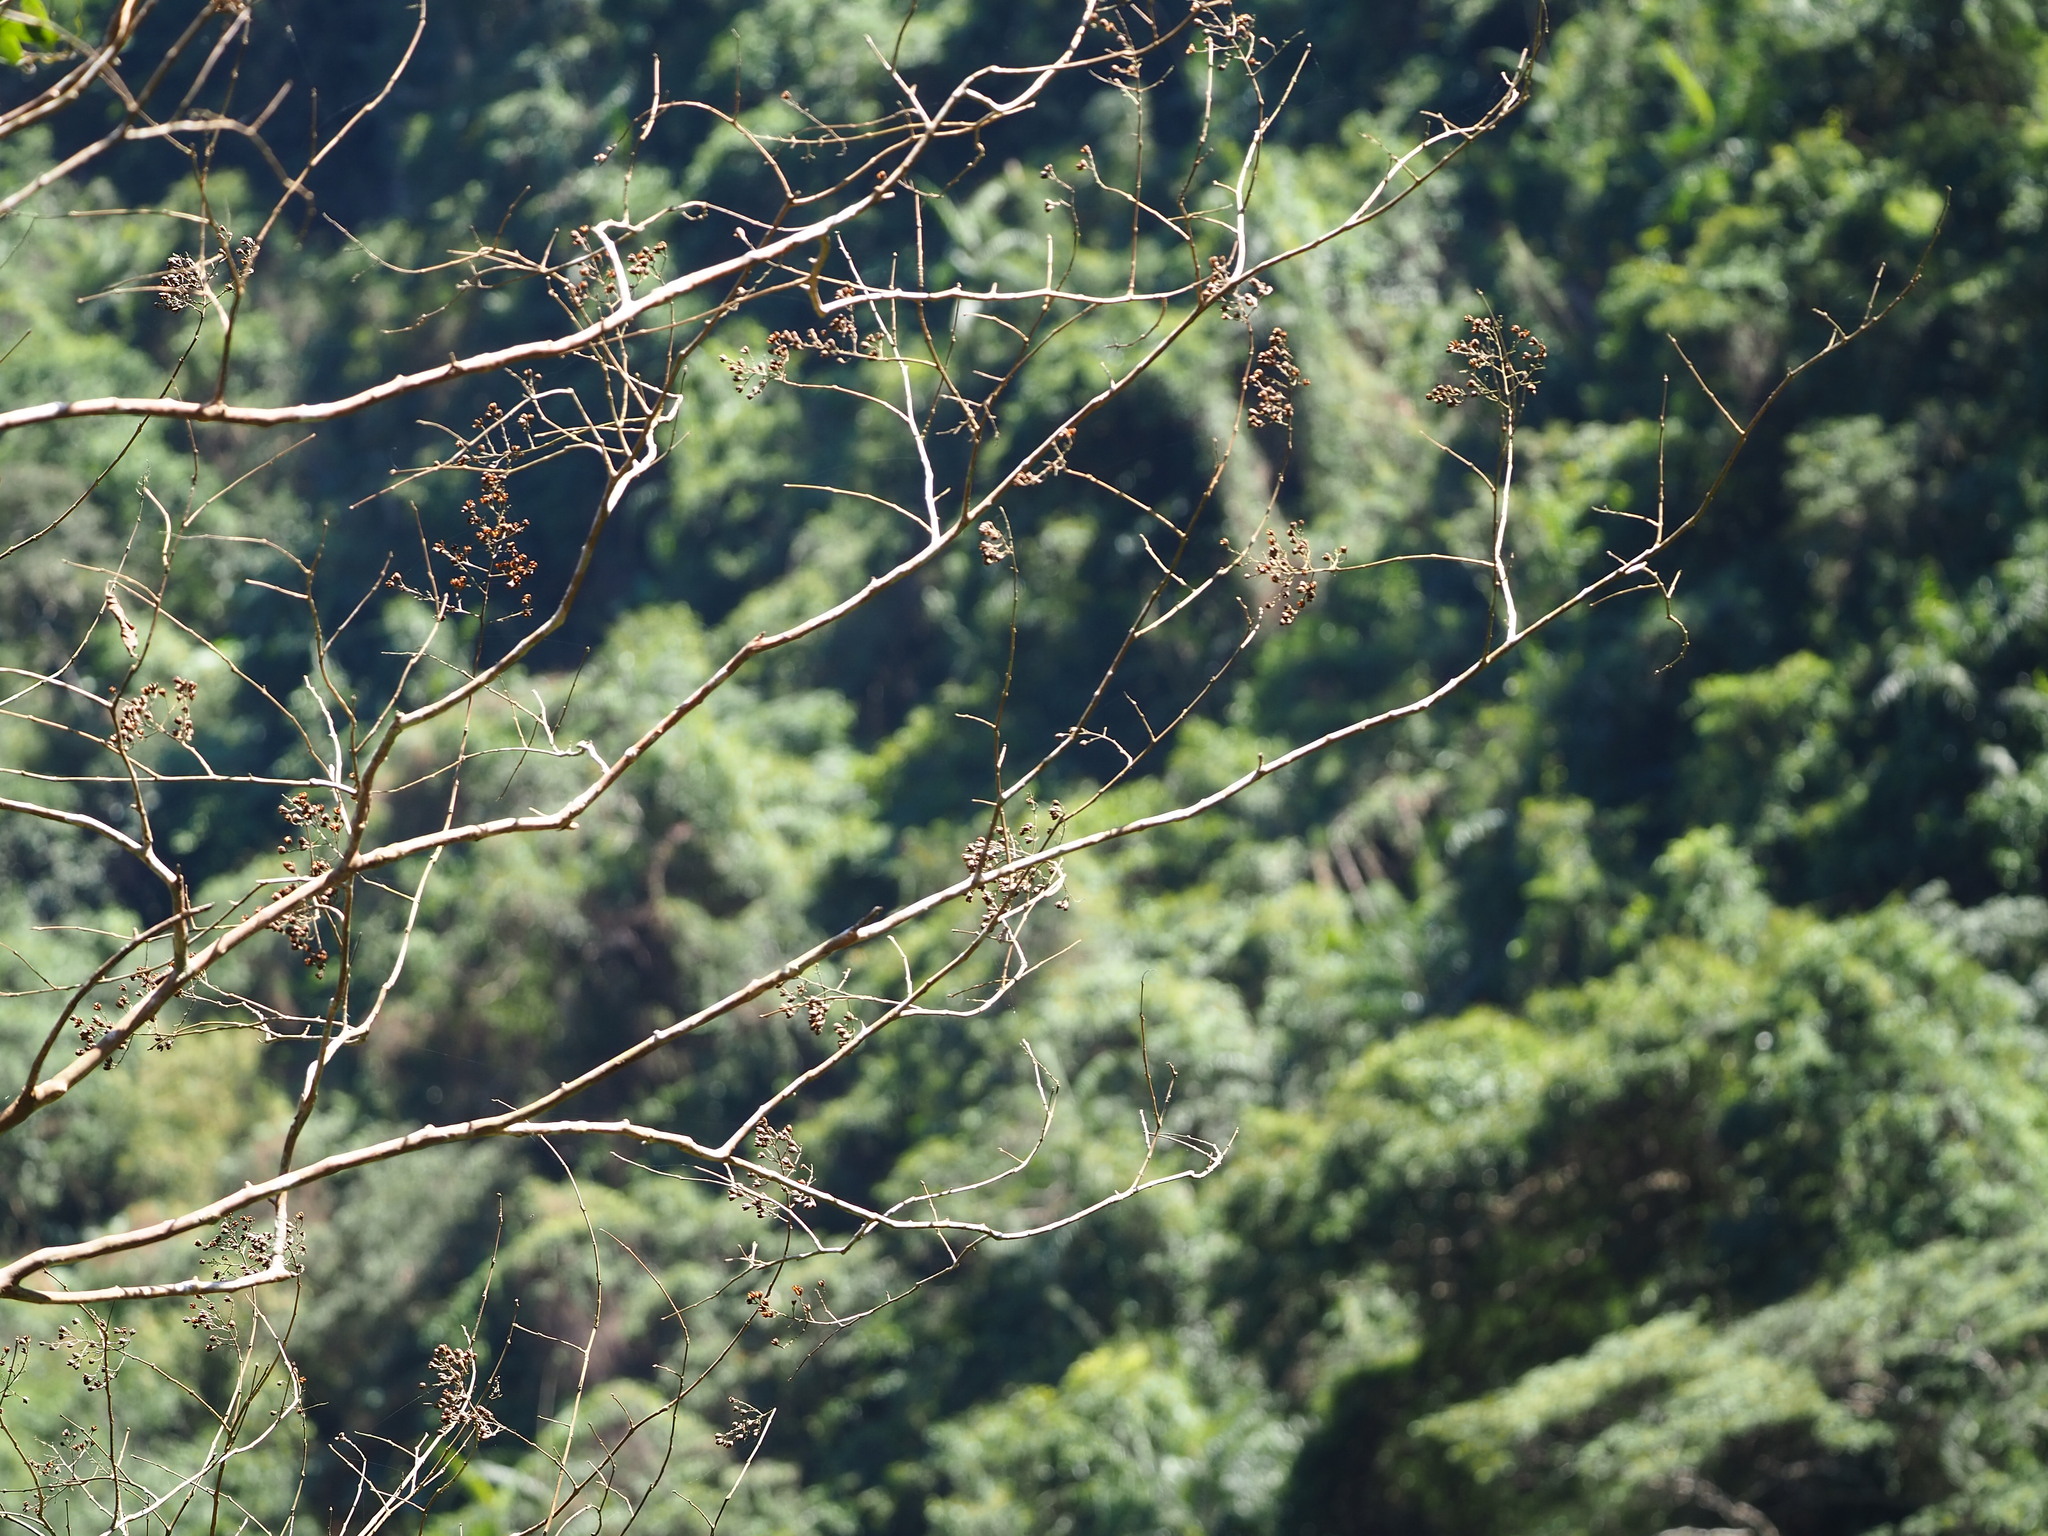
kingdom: Plantae
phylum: Tracheophyta
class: Magnoliopsida
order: Myrtales
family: Lythraceae
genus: Lagerstroemia
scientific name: Lagerstroemia subcostata
